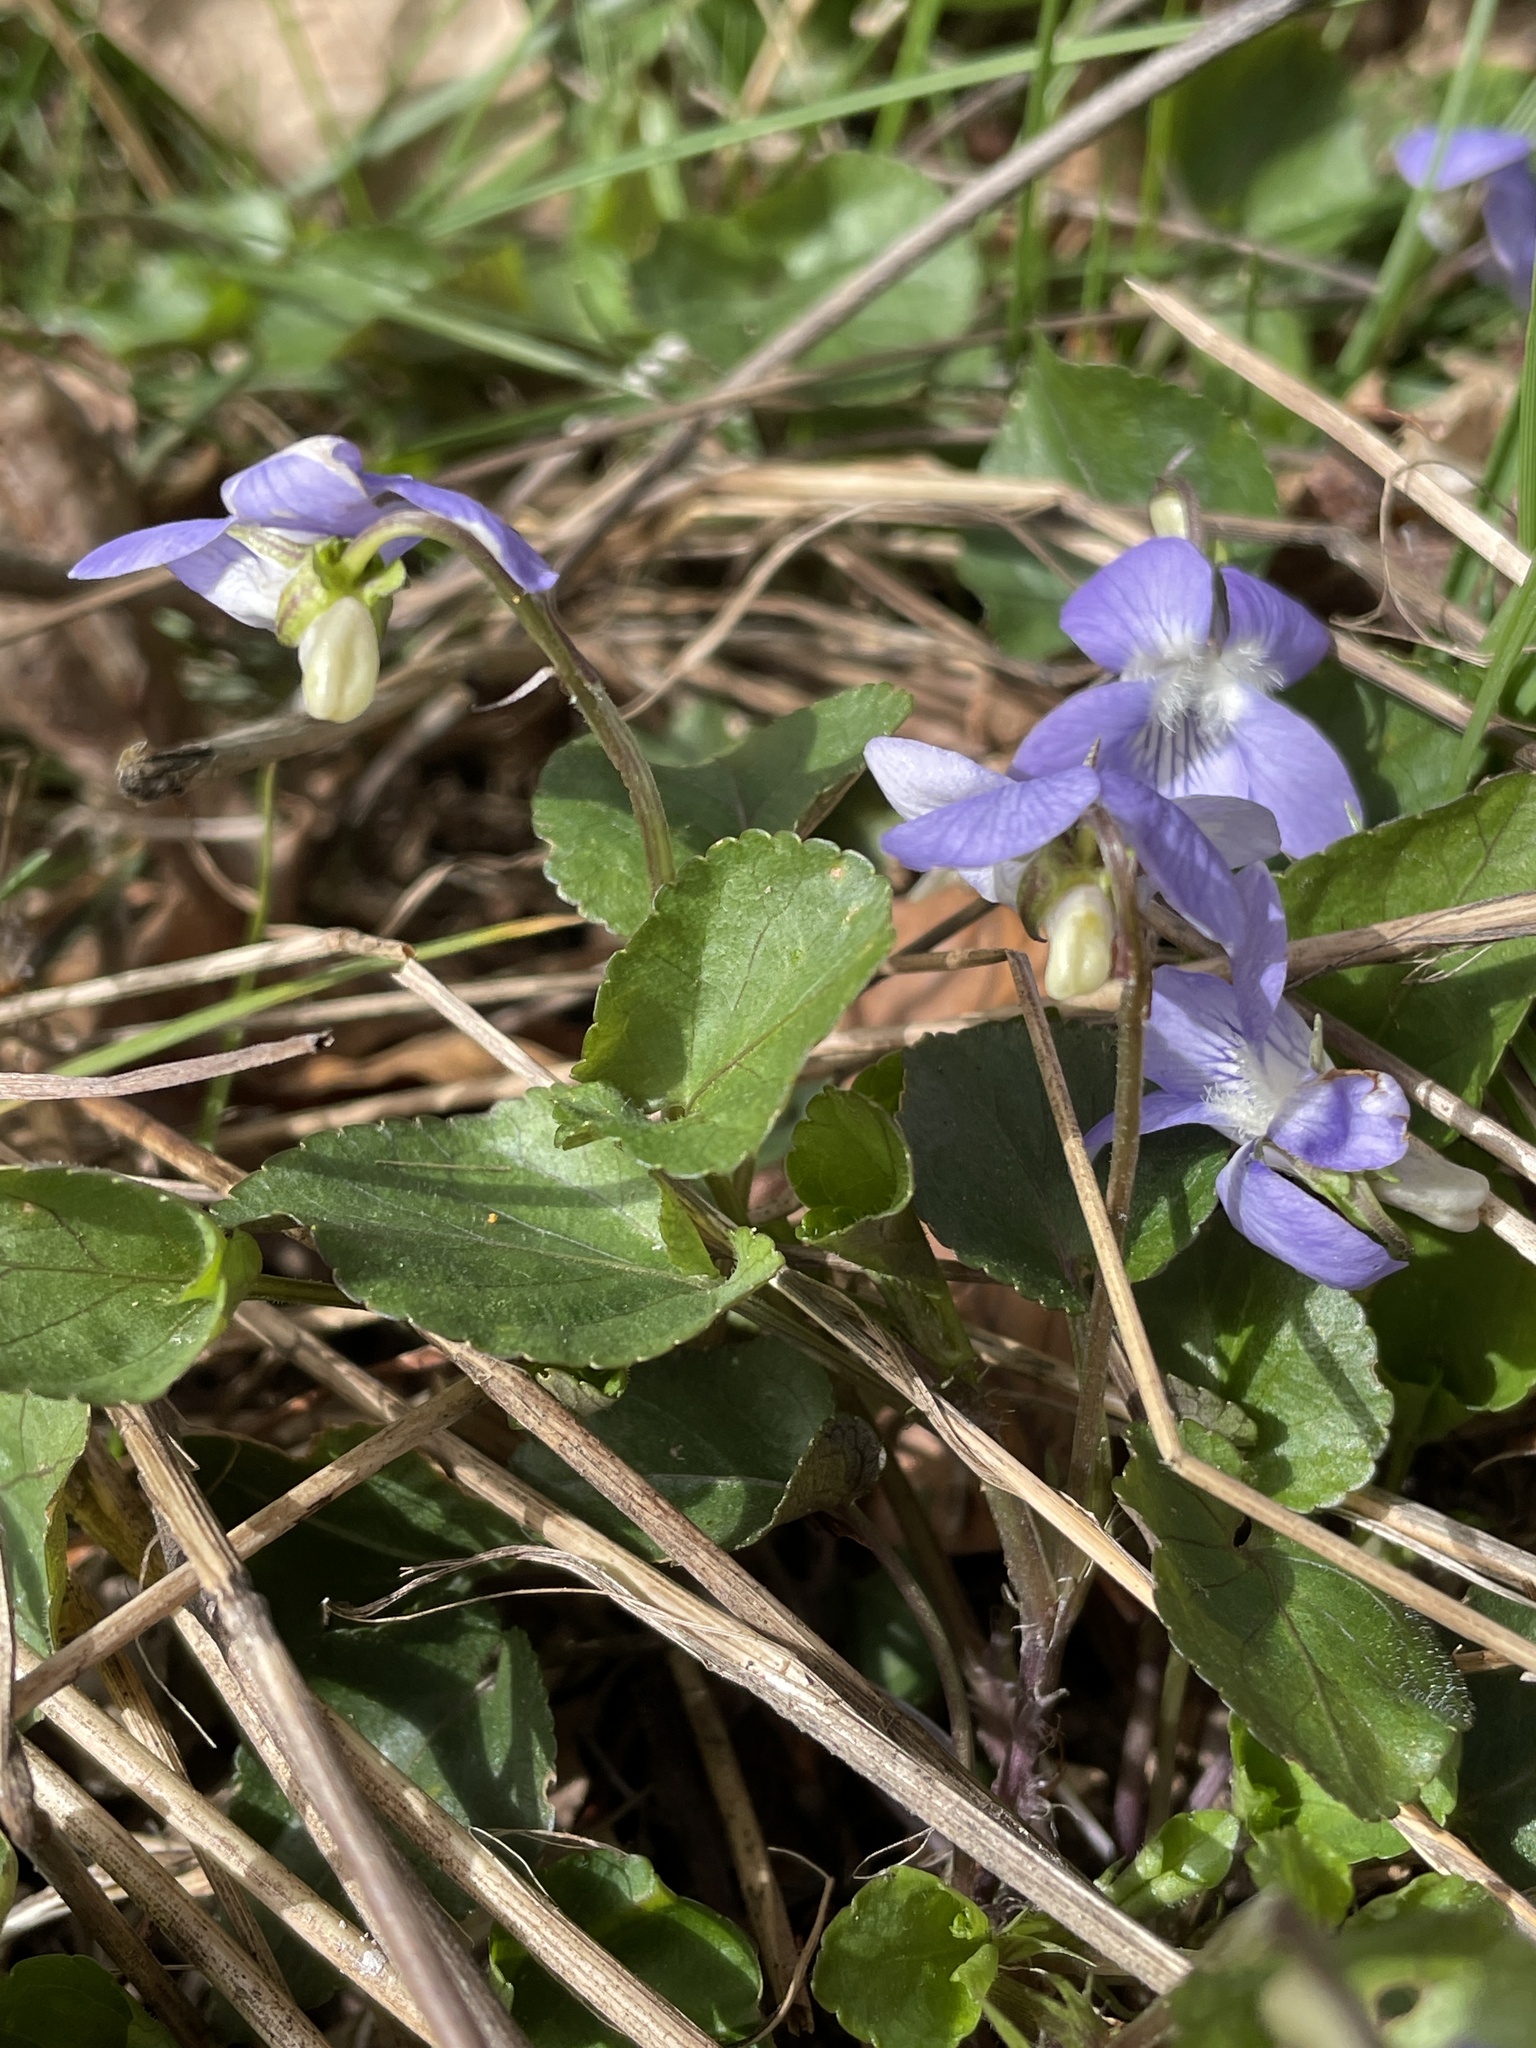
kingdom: Plantae
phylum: Tracheophyta
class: Magnoliopsida
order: Malpighiales
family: Violaceae
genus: Viola
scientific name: Viola riviniana
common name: Common dog-violet
